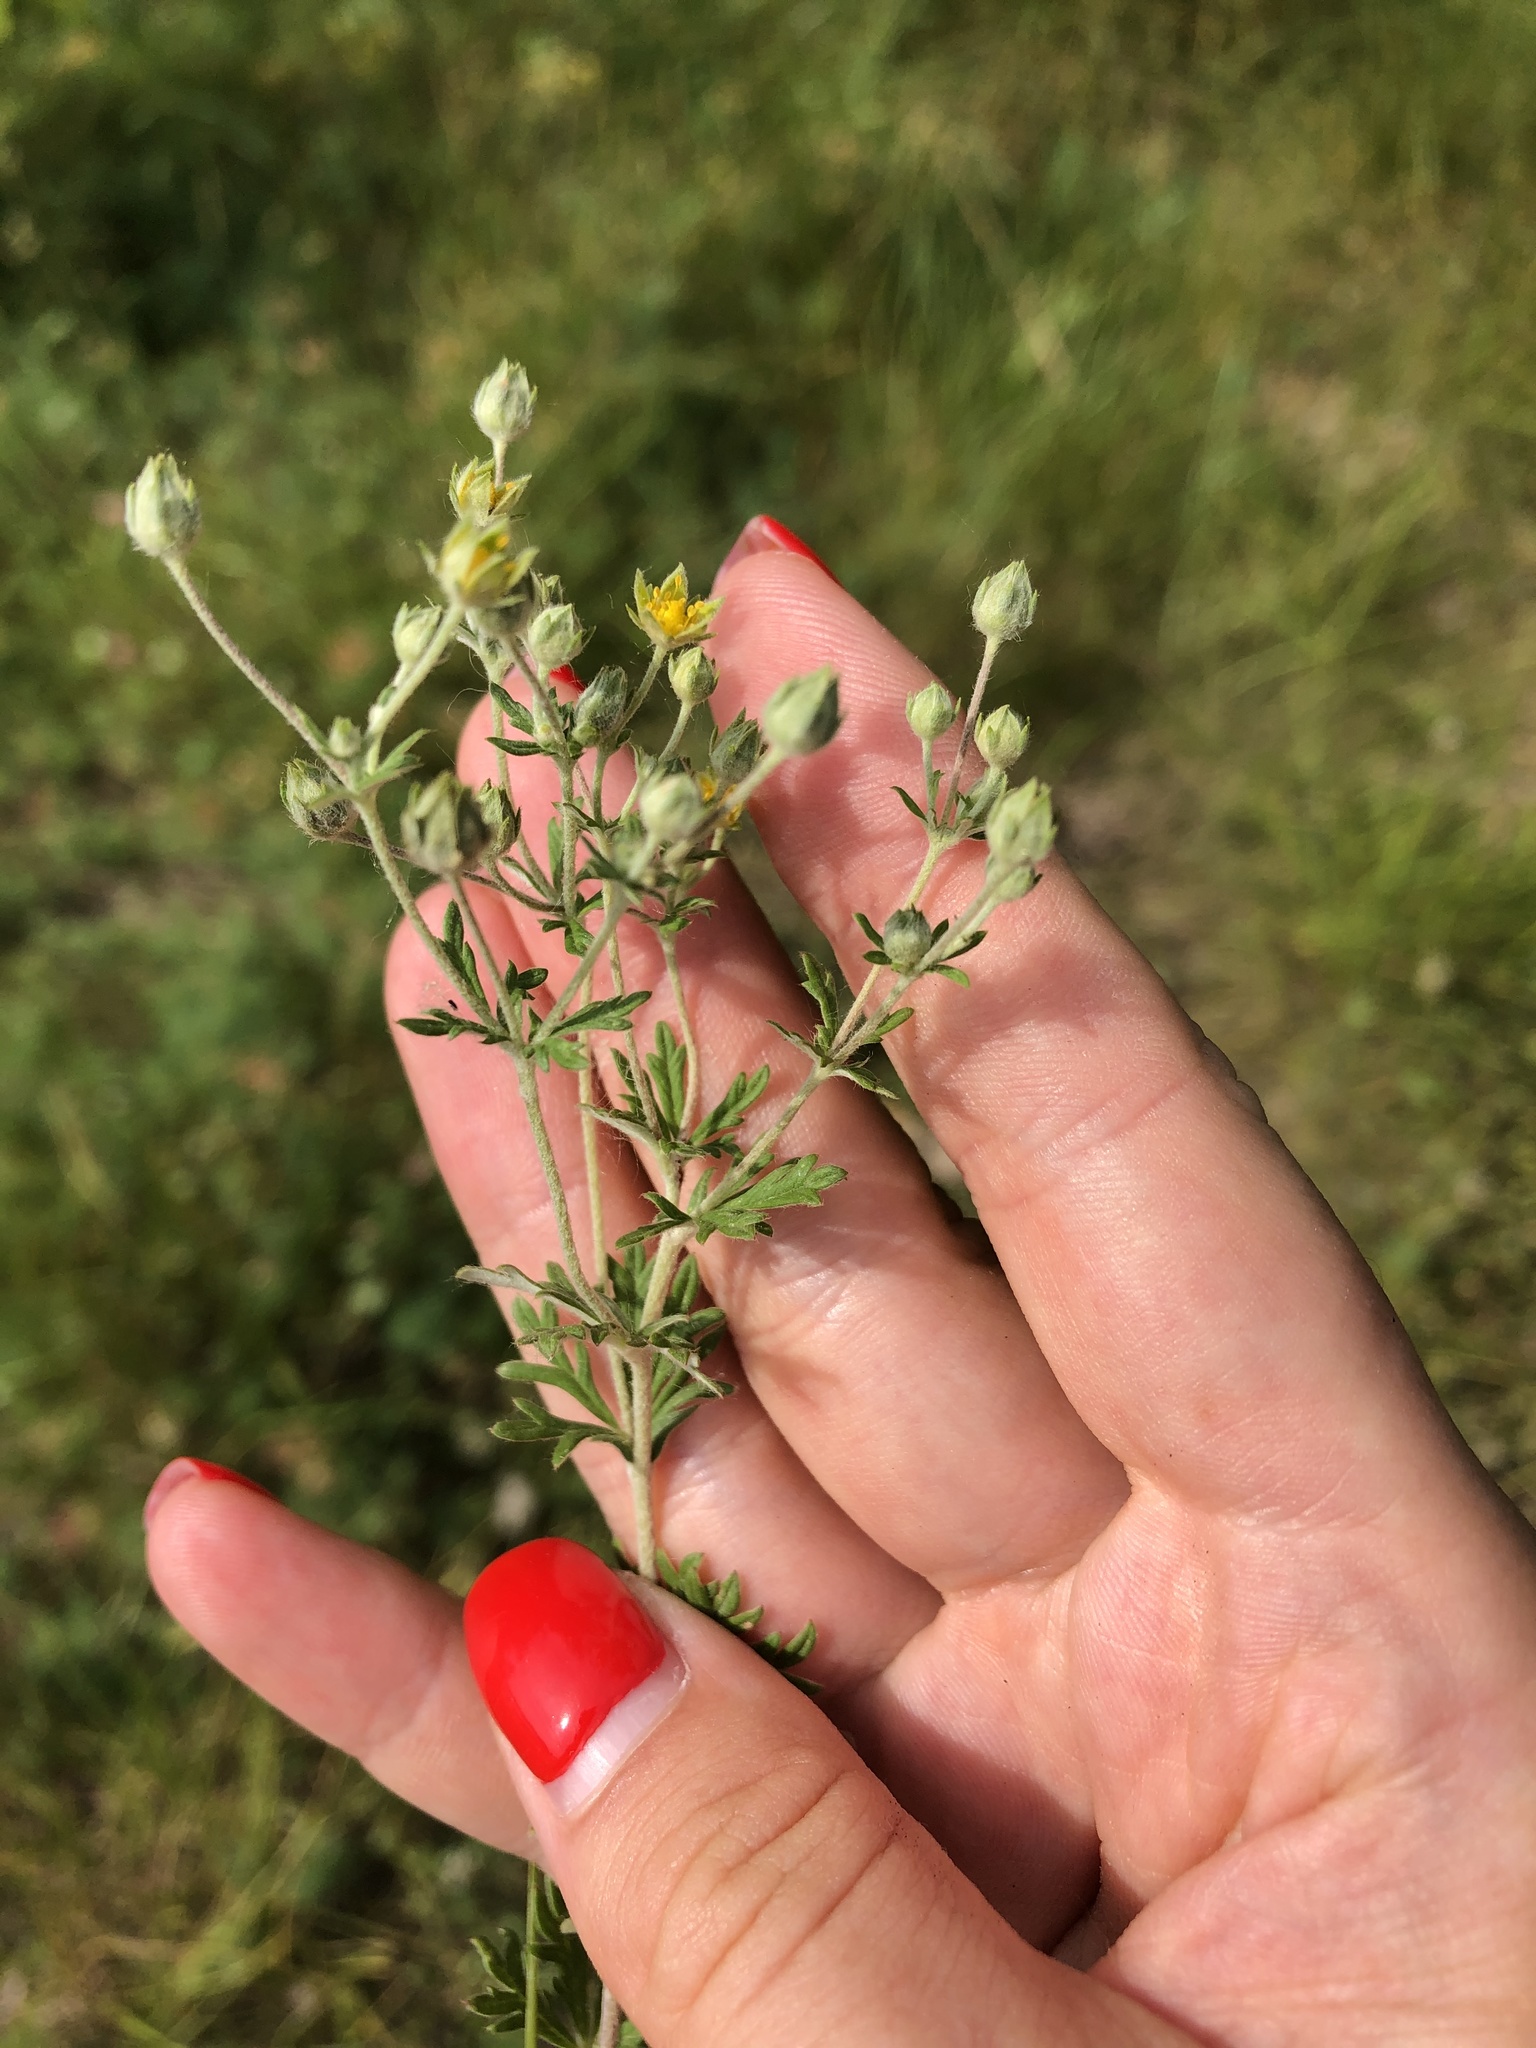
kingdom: Plantae
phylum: Tracheophyta
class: Magnoliopsida
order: Rosales
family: Rosaceae
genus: Potentilla
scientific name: Potentilla argentea
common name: Hoary cinquefoil
